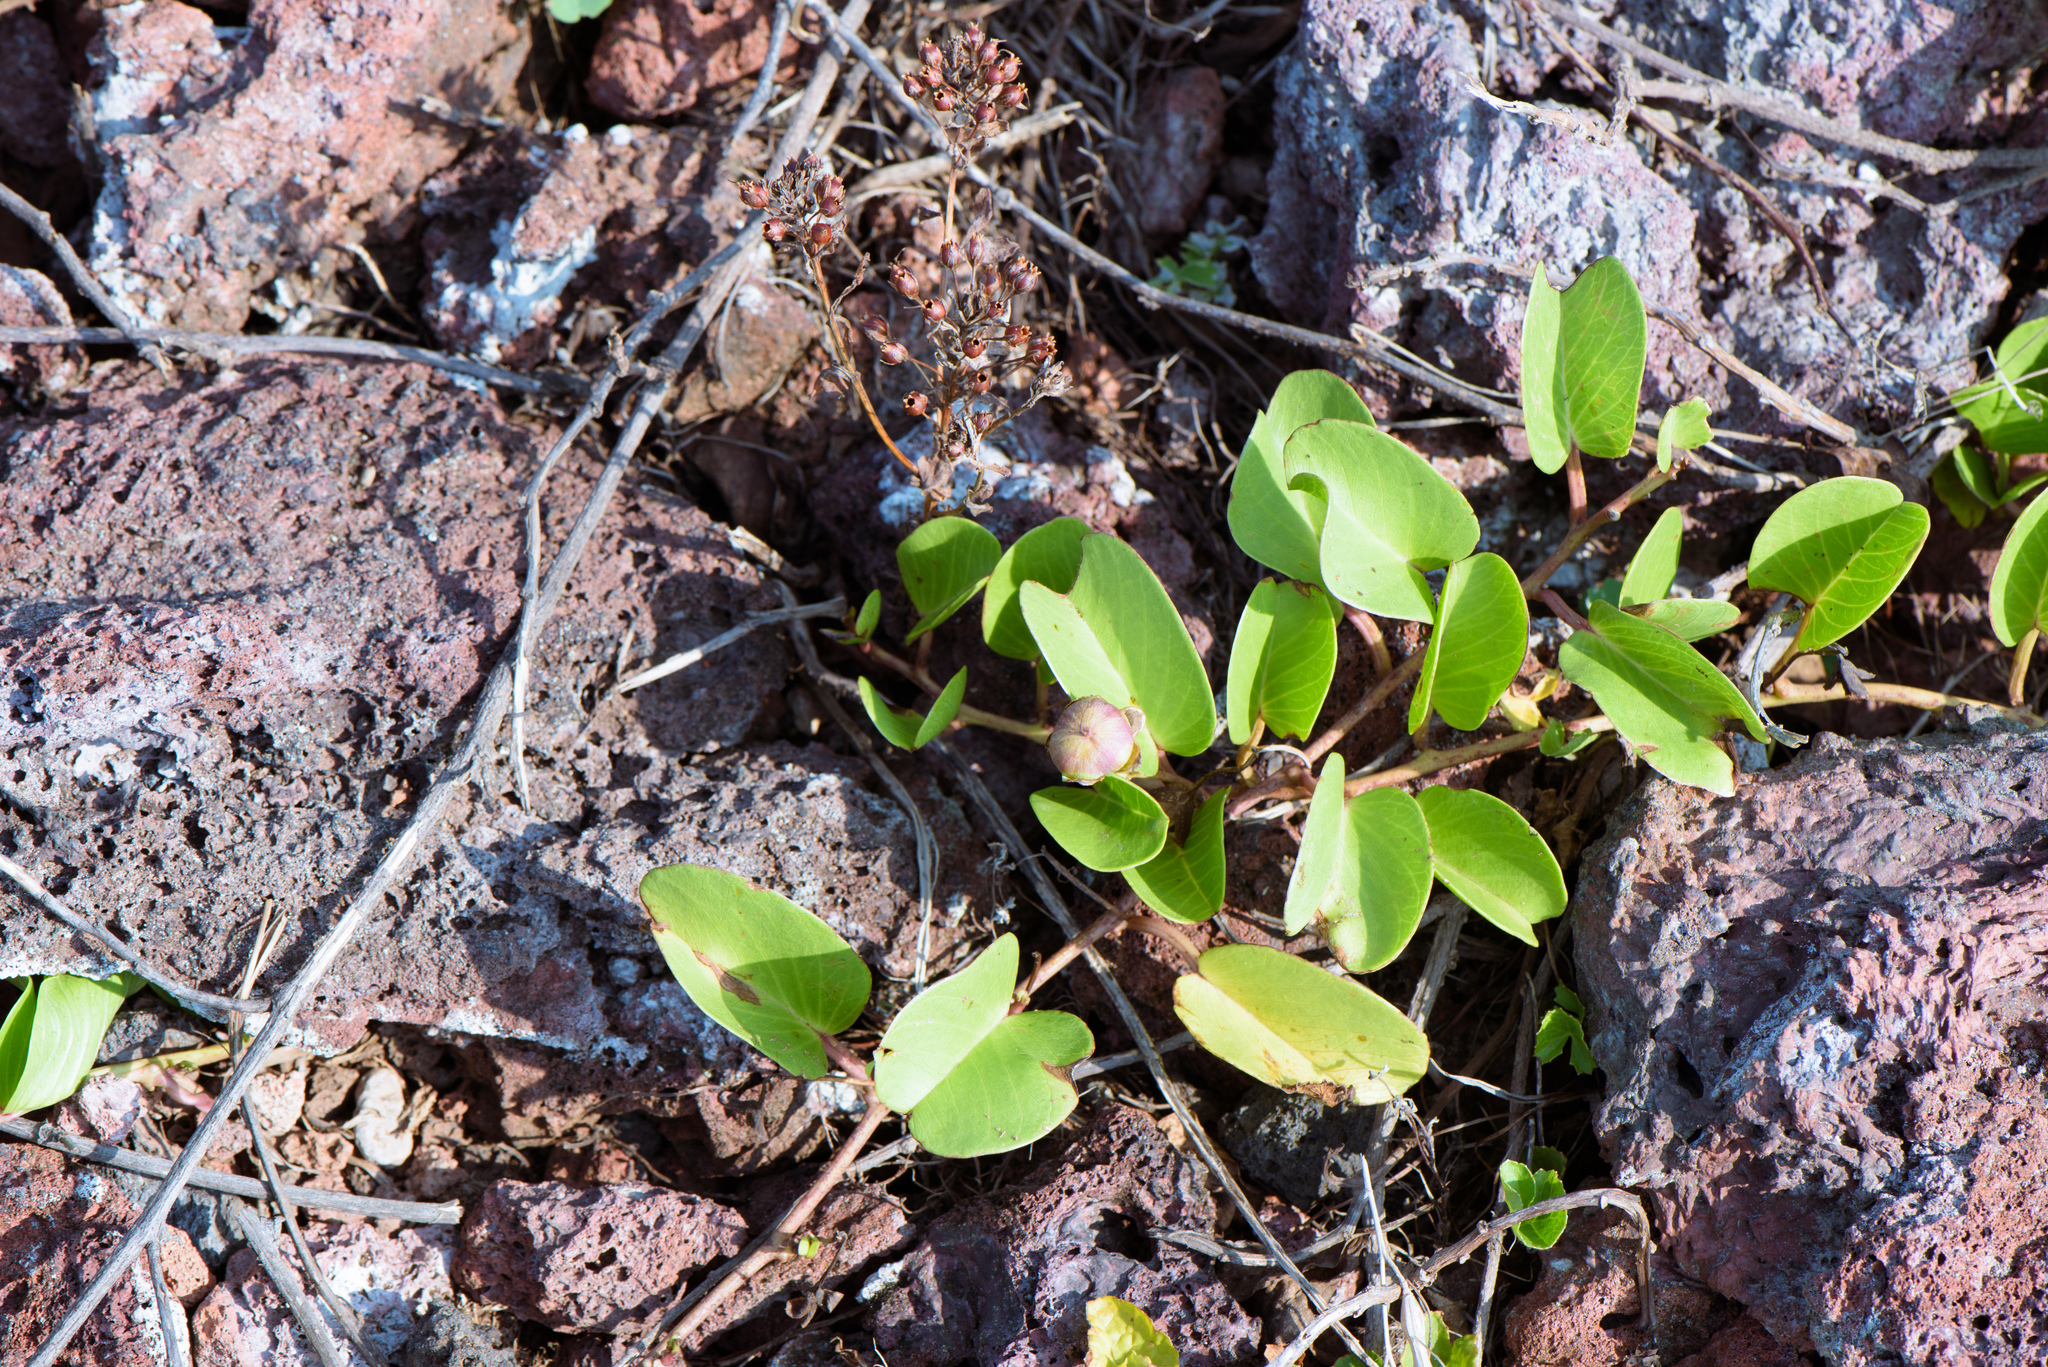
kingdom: Plantae
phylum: Tracheophyta
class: Magnoliopsida
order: Solanales
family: Convolvulaceae
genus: Ipomoea
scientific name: Ipomoea pes-caprae
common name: Beach morning glory
